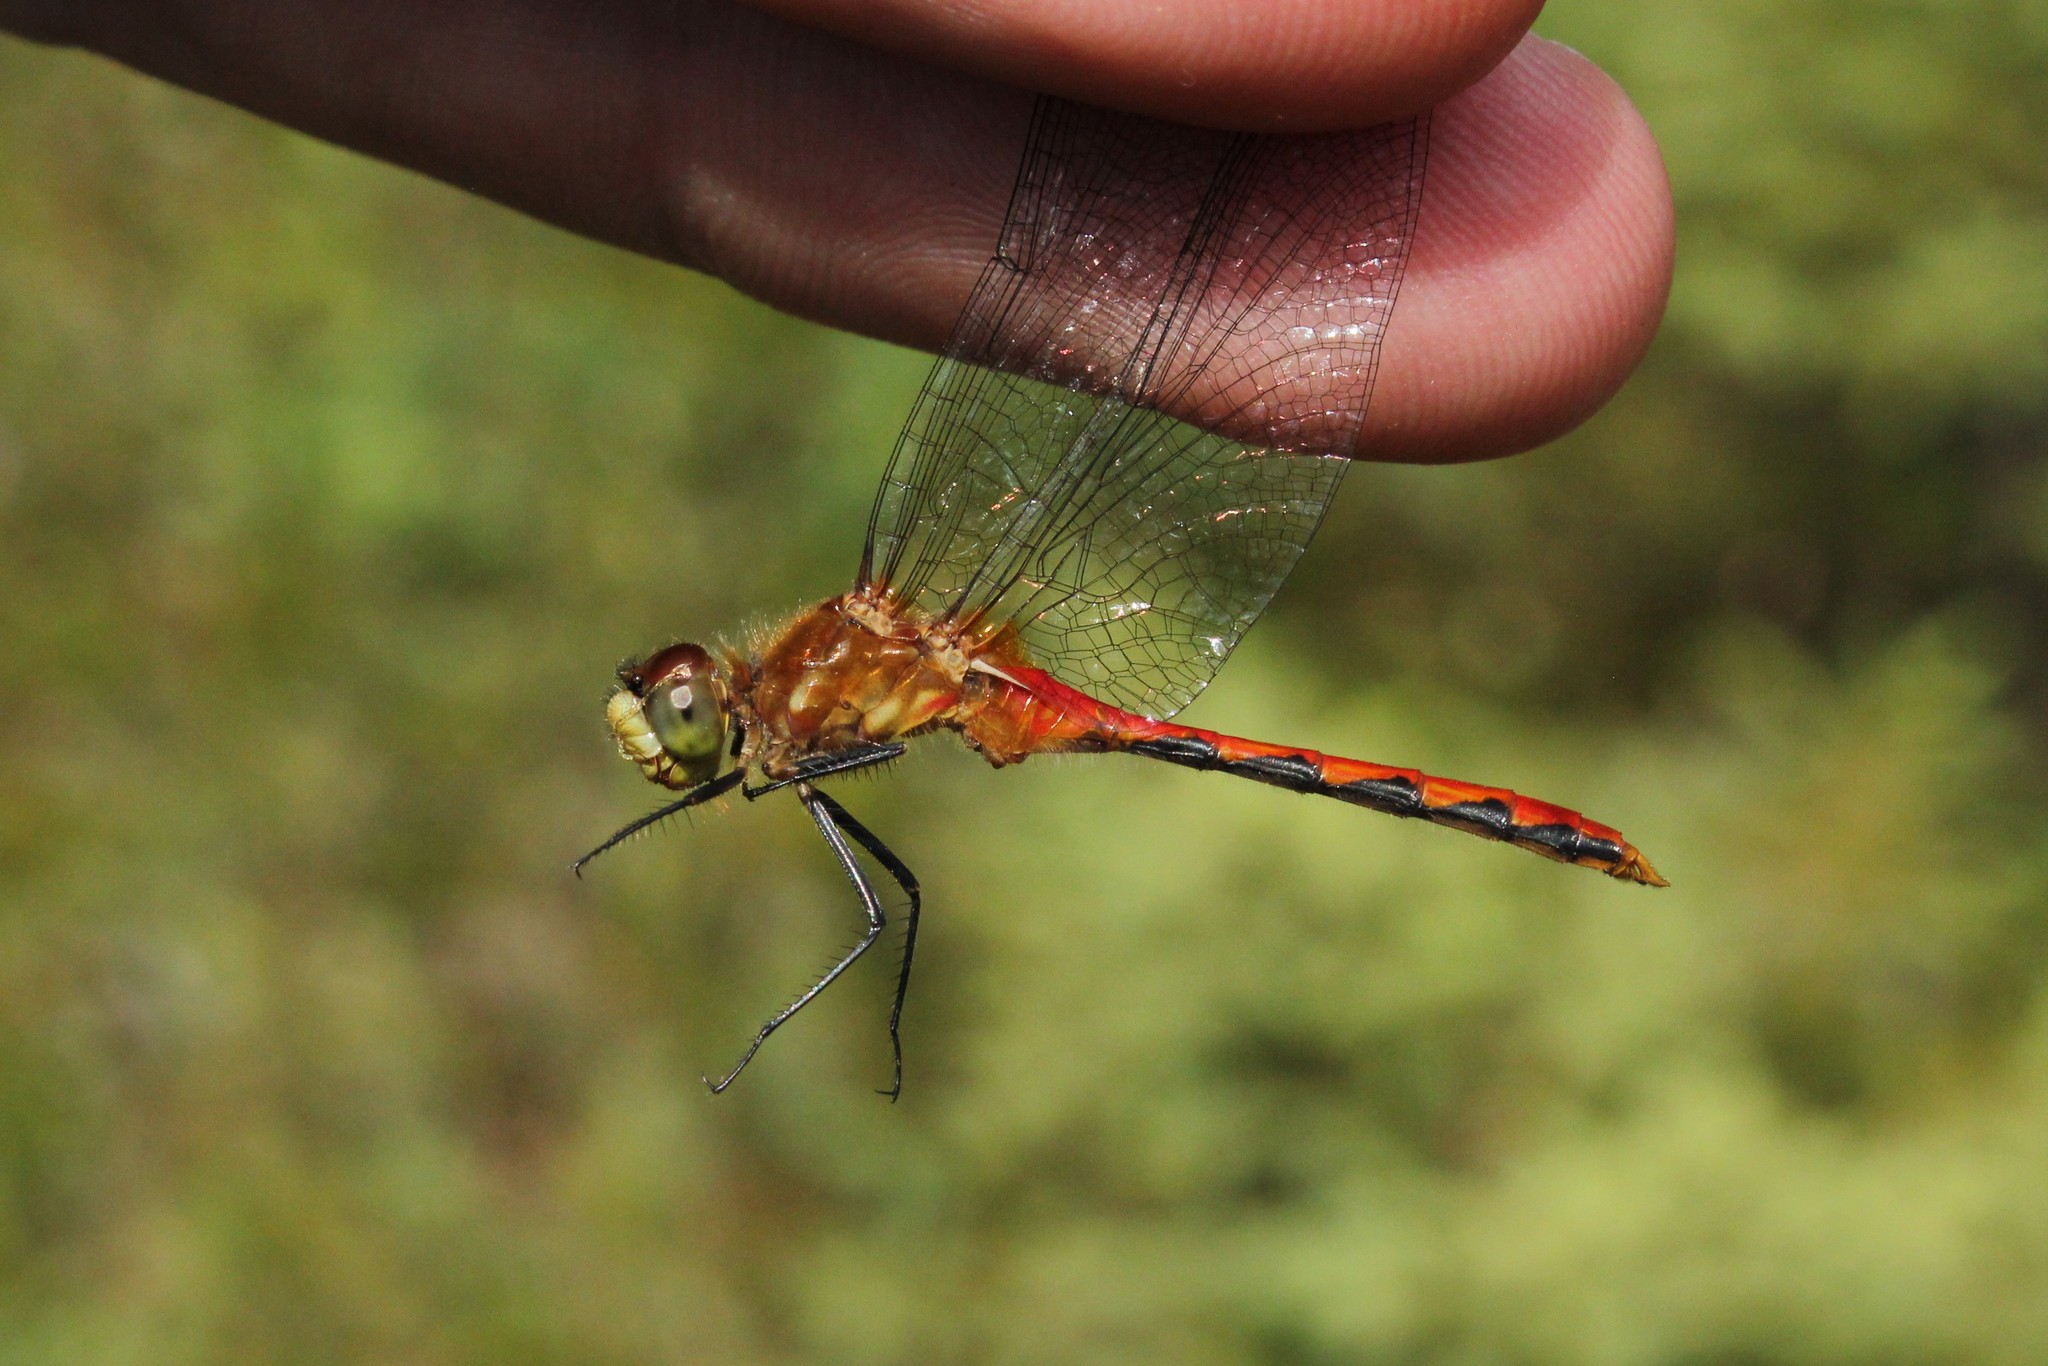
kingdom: Animalia
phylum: Arthropoda
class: Insecta
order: Odonata
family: Libellulidae
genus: Sympetrum
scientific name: Sympetrum obtrusum
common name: White-faced meadowhawk
